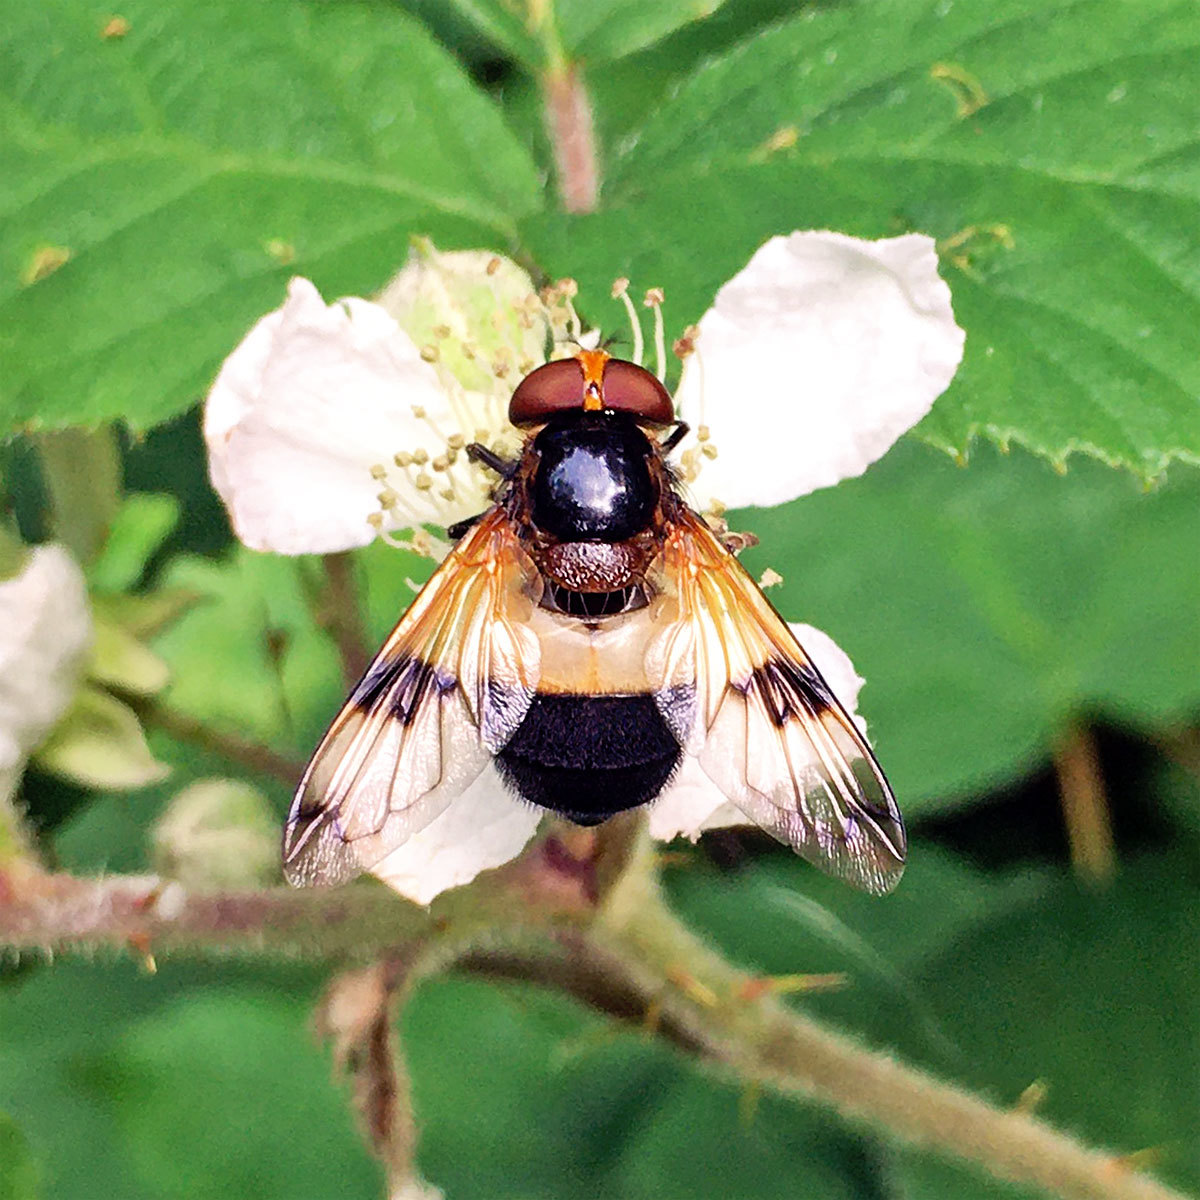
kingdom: Animalia
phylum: Arthropoda
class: Insecta
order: Diptera
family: Syrphidae
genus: Volucella
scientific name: Volucella pellucens
